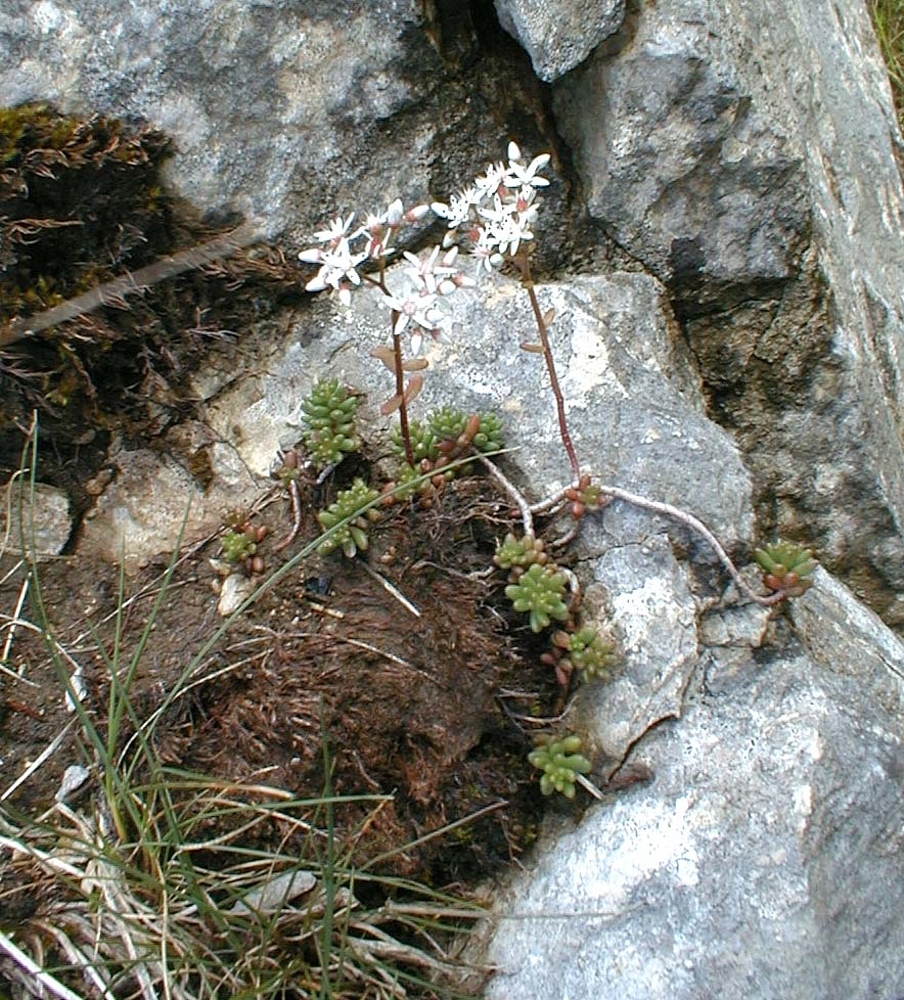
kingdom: Plantae
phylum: Tracheophyta
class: Magnoliopsida
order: Saxifragales
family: Crassulaceae
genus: Sedum
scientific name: Sedum album
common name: White stonecrop
